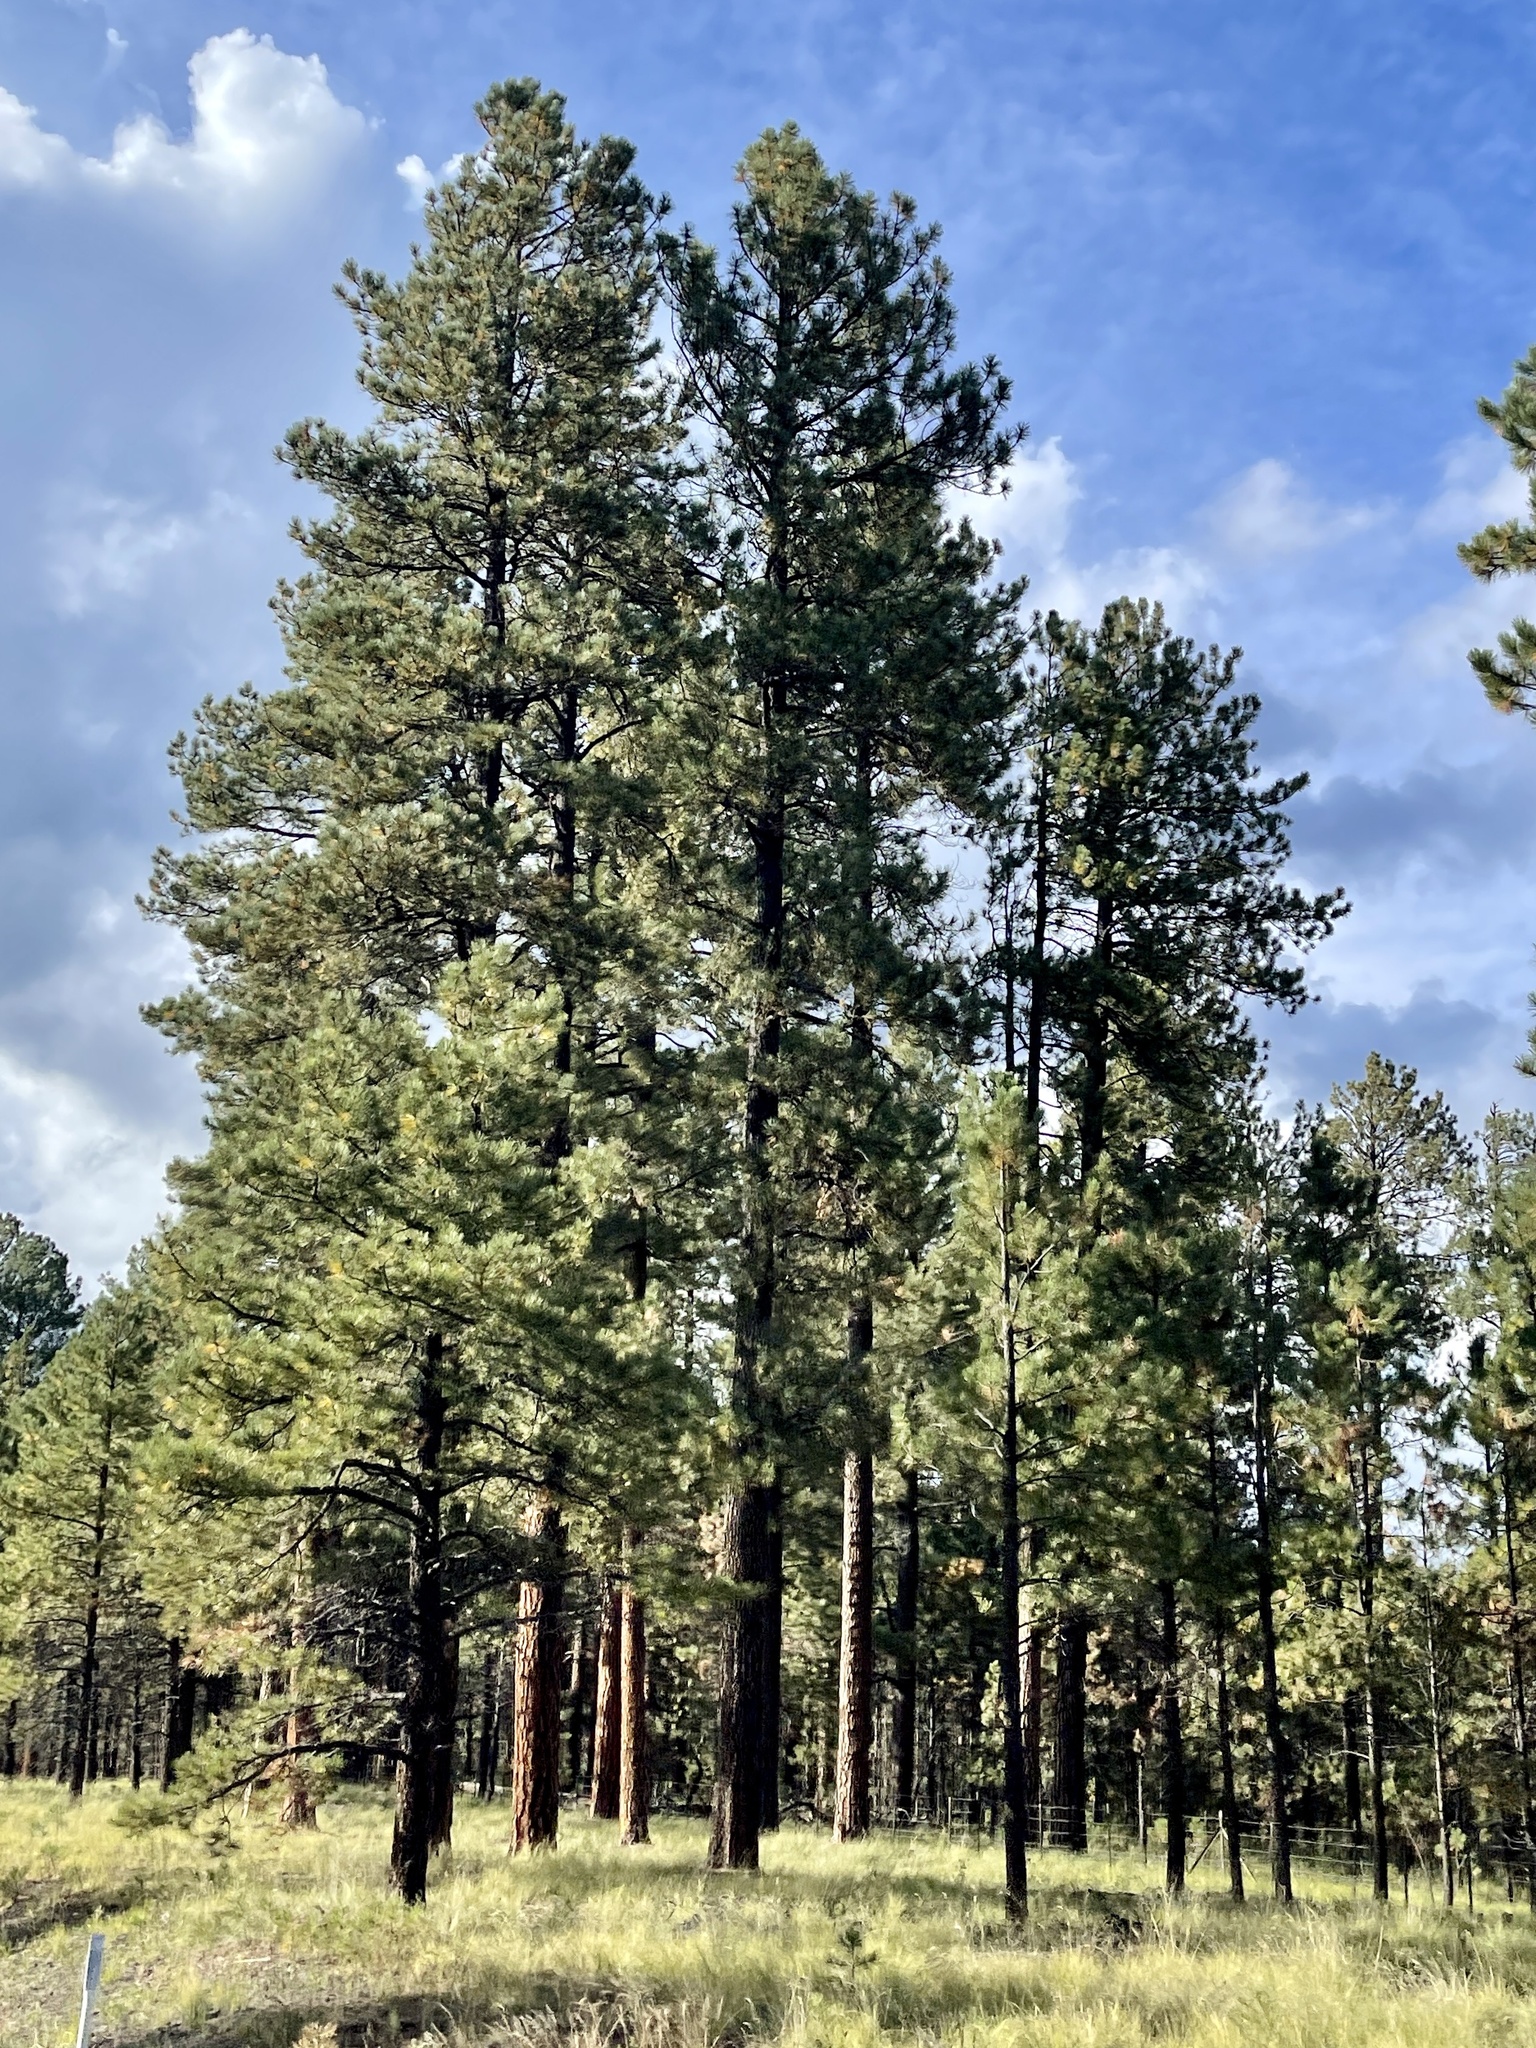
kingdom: Plantae
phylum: Tracheophyta
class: Pinopsida
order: Pinales
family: Pinaceae
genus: Pinus
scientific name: Pinus ponderosa
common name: Western yellow-pine
